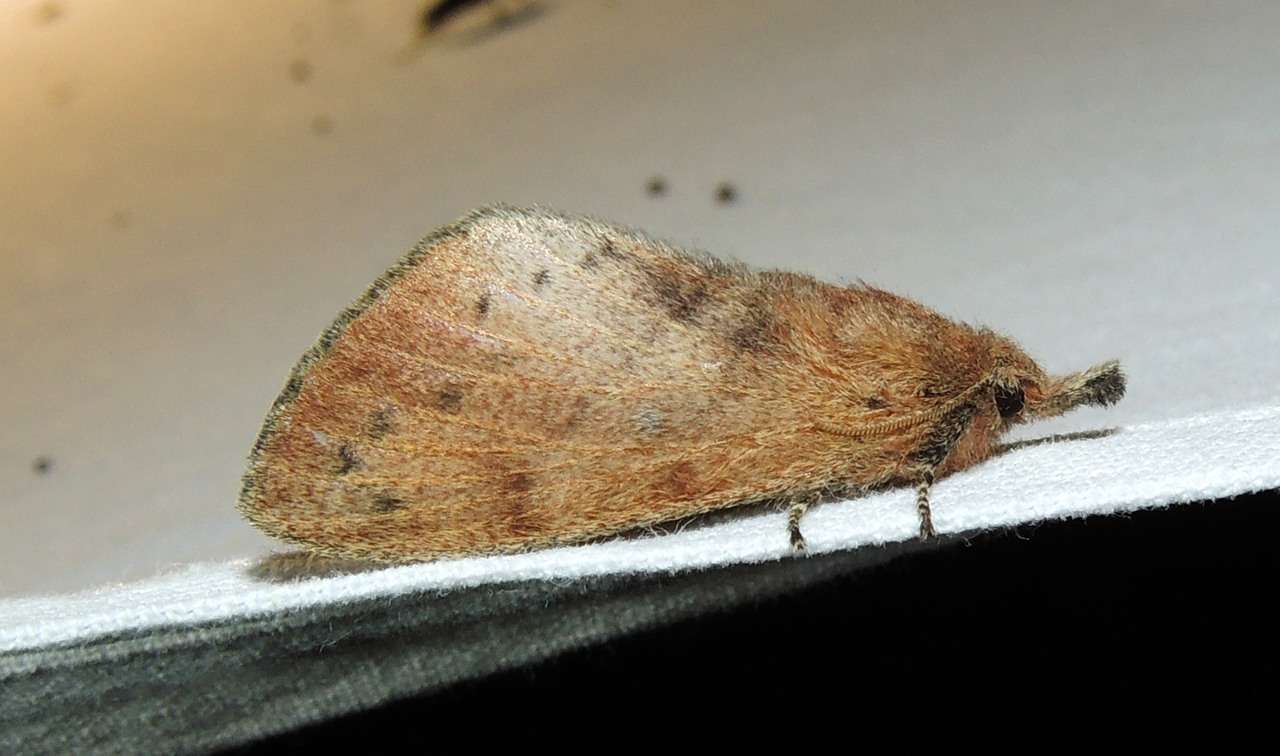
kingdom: Animalia
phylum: Arthropoda
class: Insecta
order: Lepidoptera
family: Lasiocampidae
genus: Opsirhina
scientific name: Opsirhina lechriodes
